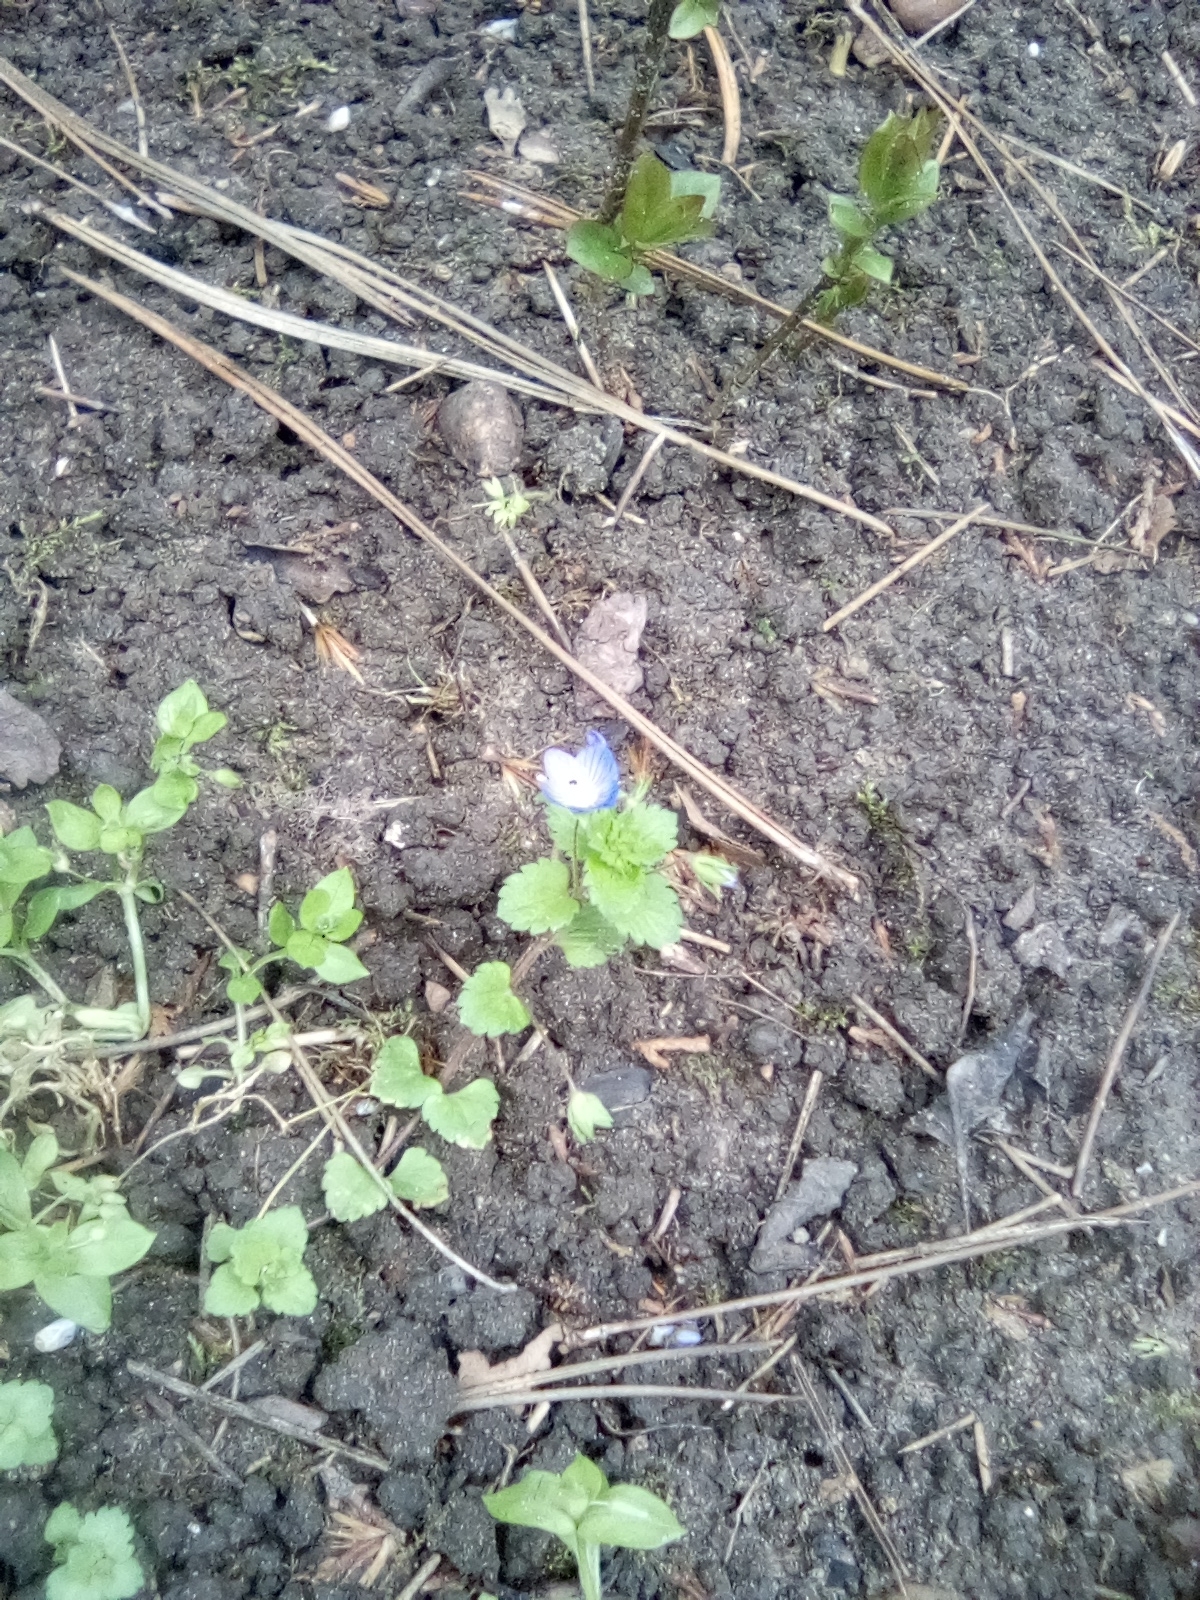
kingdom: Plantae
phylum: Tracheophyta
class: Magnoliopsida
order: Lamiales
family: Plantaginaceae
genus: Veronica
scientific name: Veronica persica
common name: Common field-speedwell
